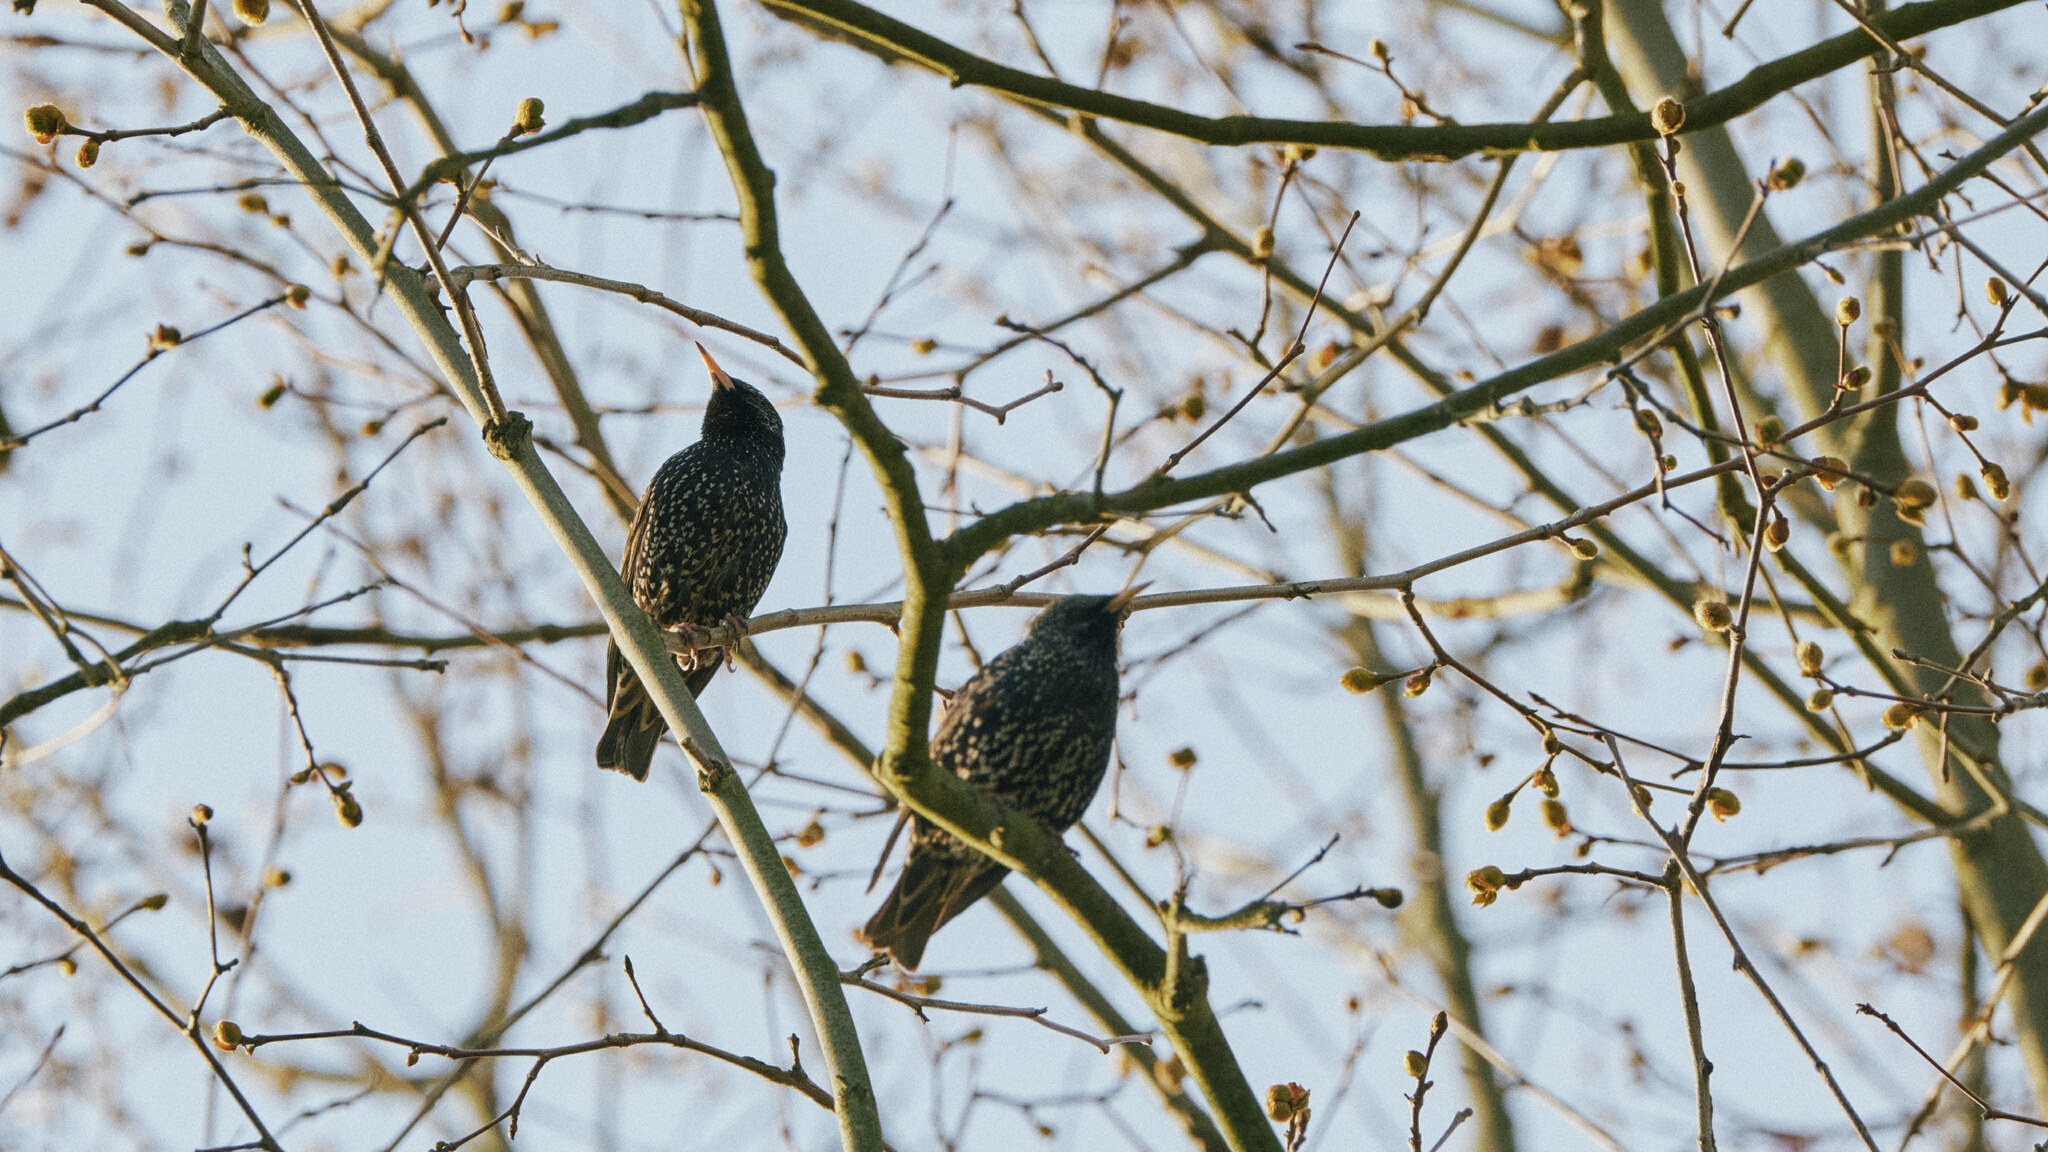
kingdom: Animalia
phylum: Chordata
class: Aves
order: Passeriformes
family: Sturnidae
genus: Sturnus
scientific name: Sturnus vulgaris
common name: Common starling
